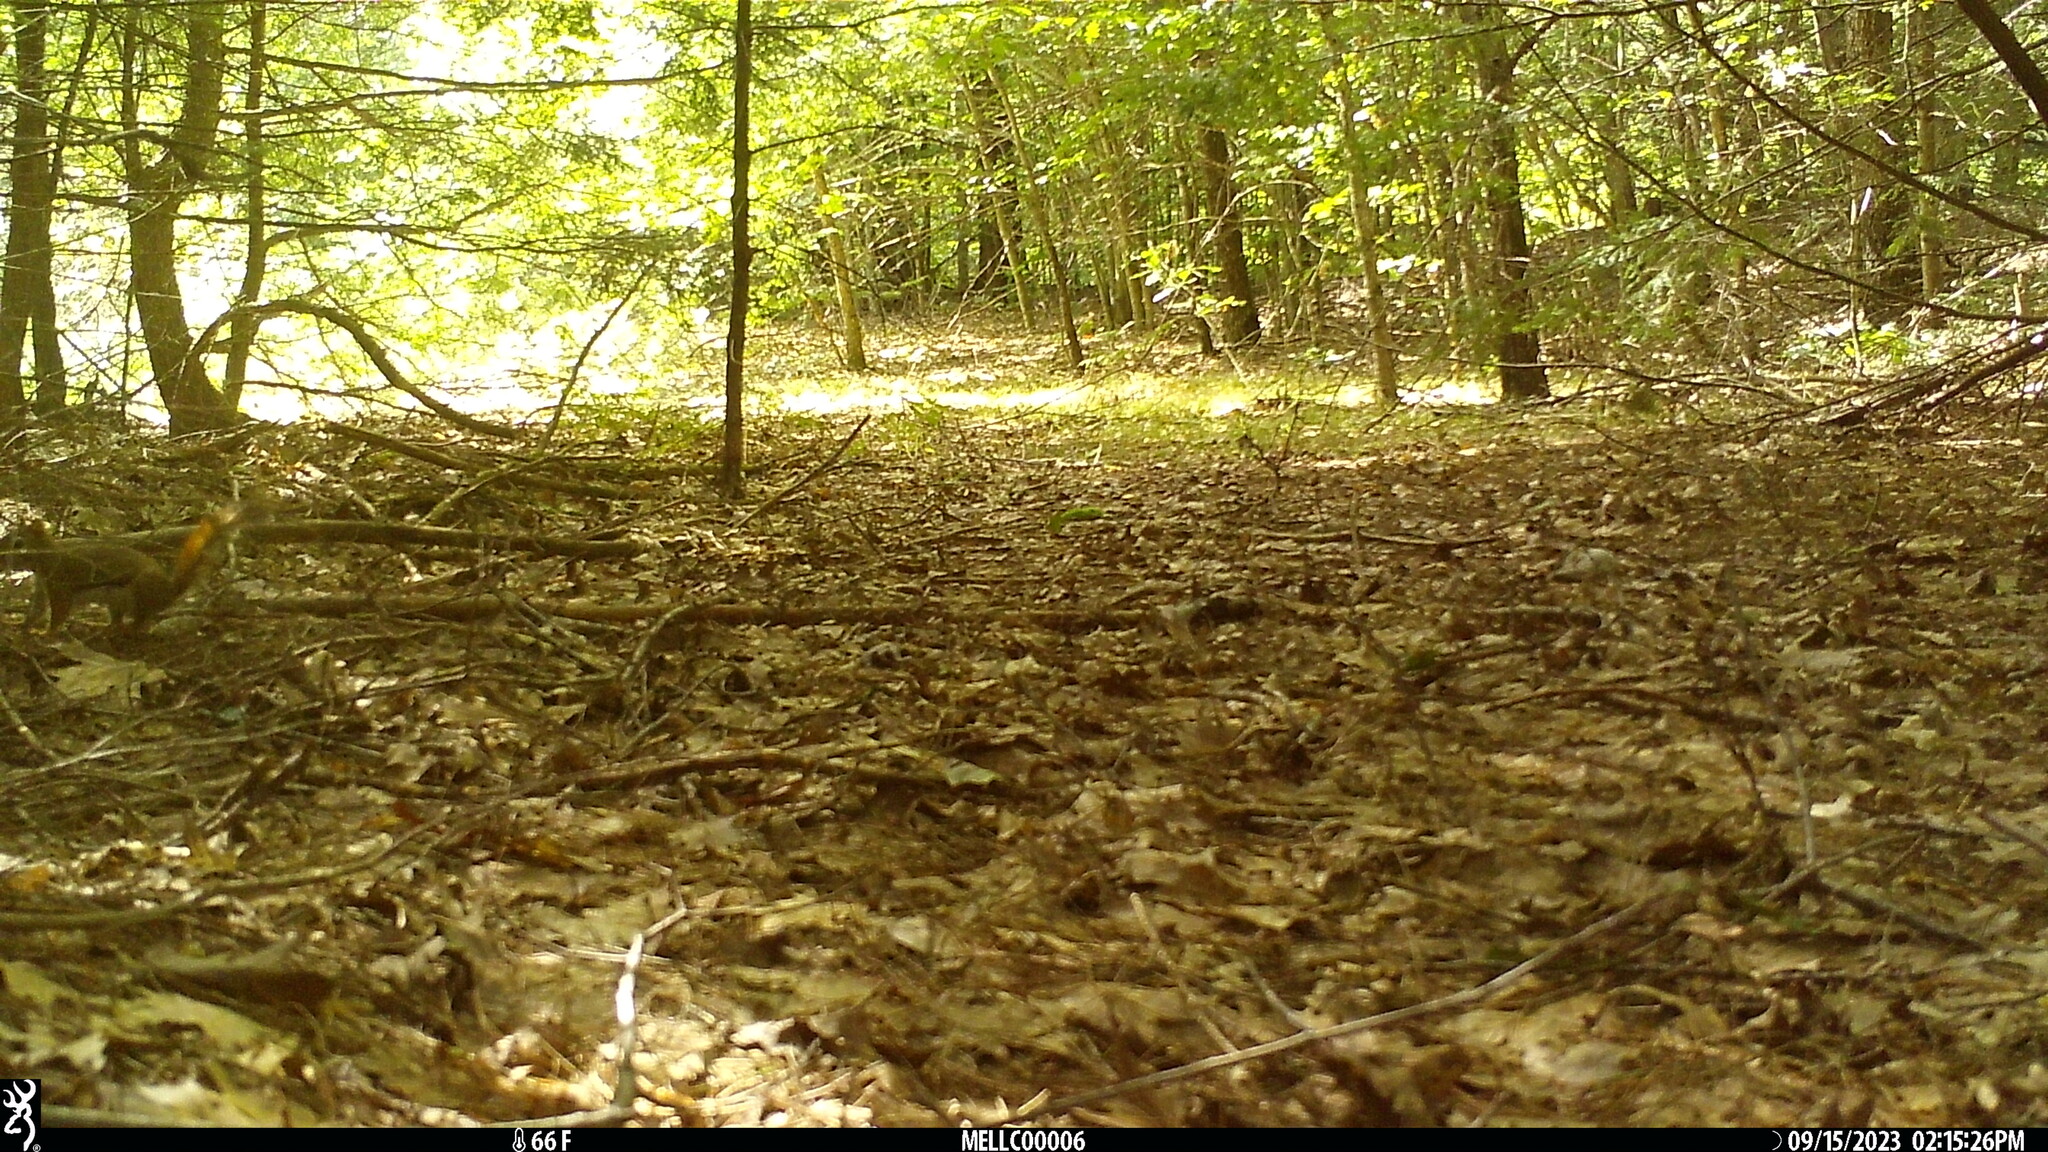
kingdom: Animalia
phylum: Chordata
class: Mammalia
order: Rodentia
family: Sciuridae
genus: Tamiasciurus
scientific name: Tamiasciurus hudsonicus
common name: Red squirrel
